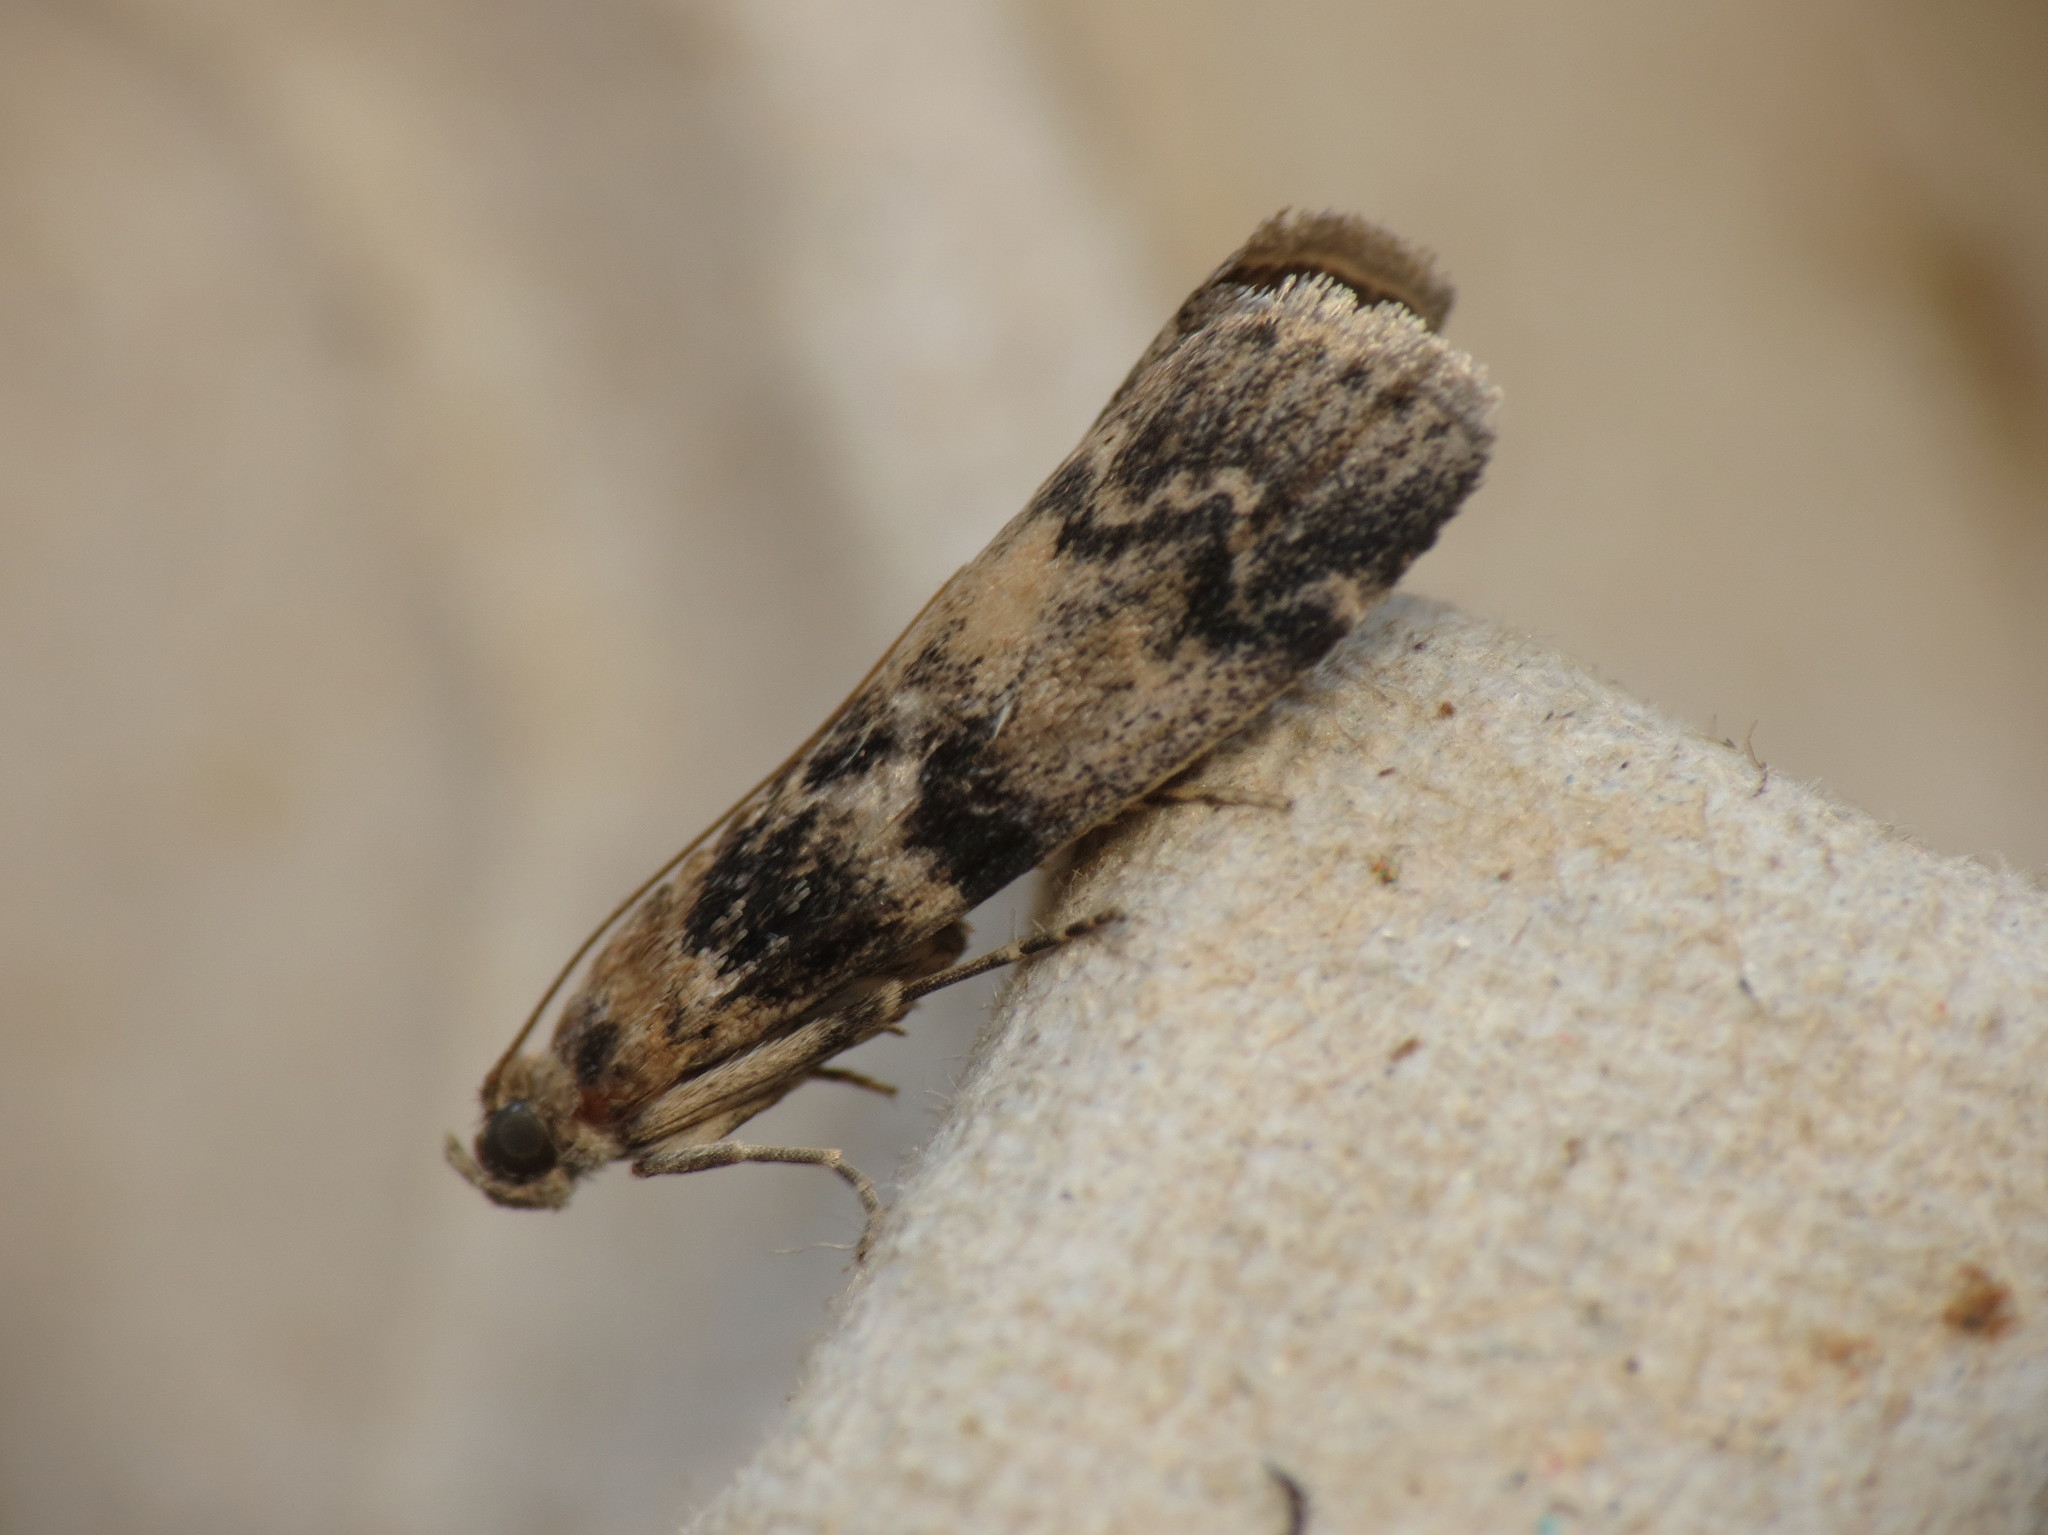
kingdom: Animalia
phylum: Arthropoda
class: Insecta
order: Lepidoptera
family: Pyralidae
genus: Euzophera
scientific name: Euzophera pinguis
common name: Ash-bark knot-horn
